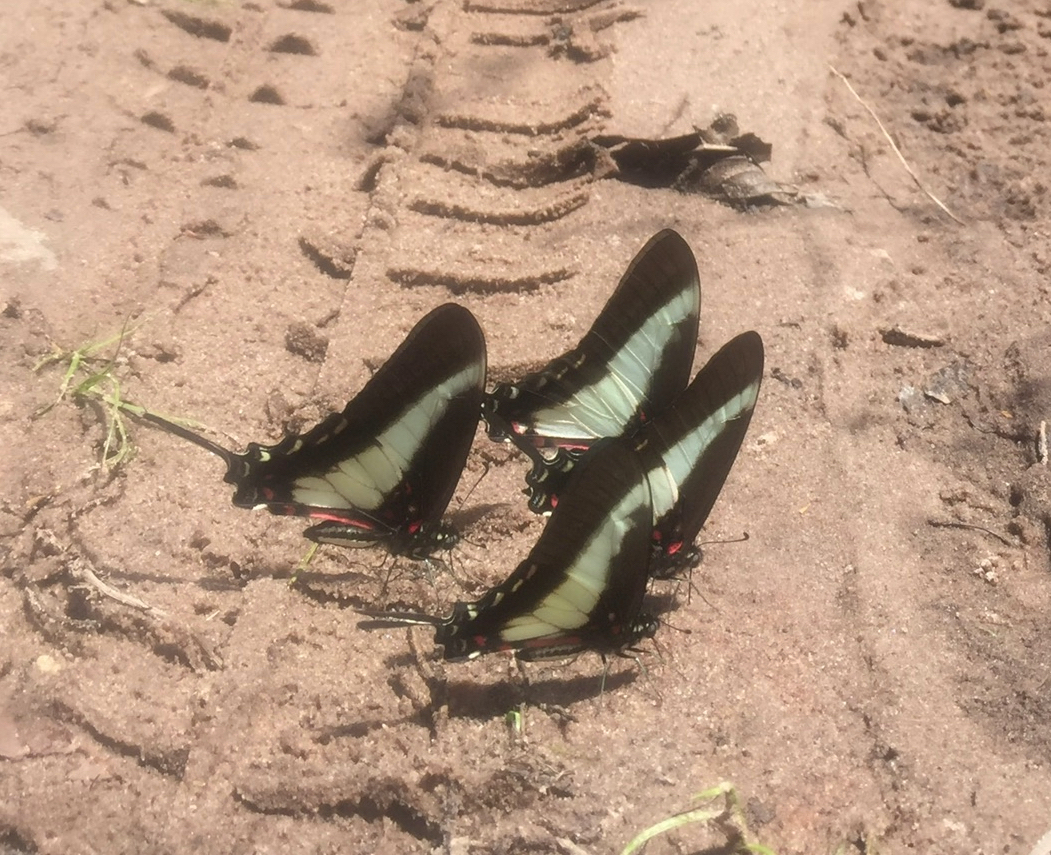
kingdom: Animalia
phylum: Arthropoda
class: Insecta
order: Lepidoptera
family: Papilionidae
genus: Protographium
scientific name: Protographium asius
